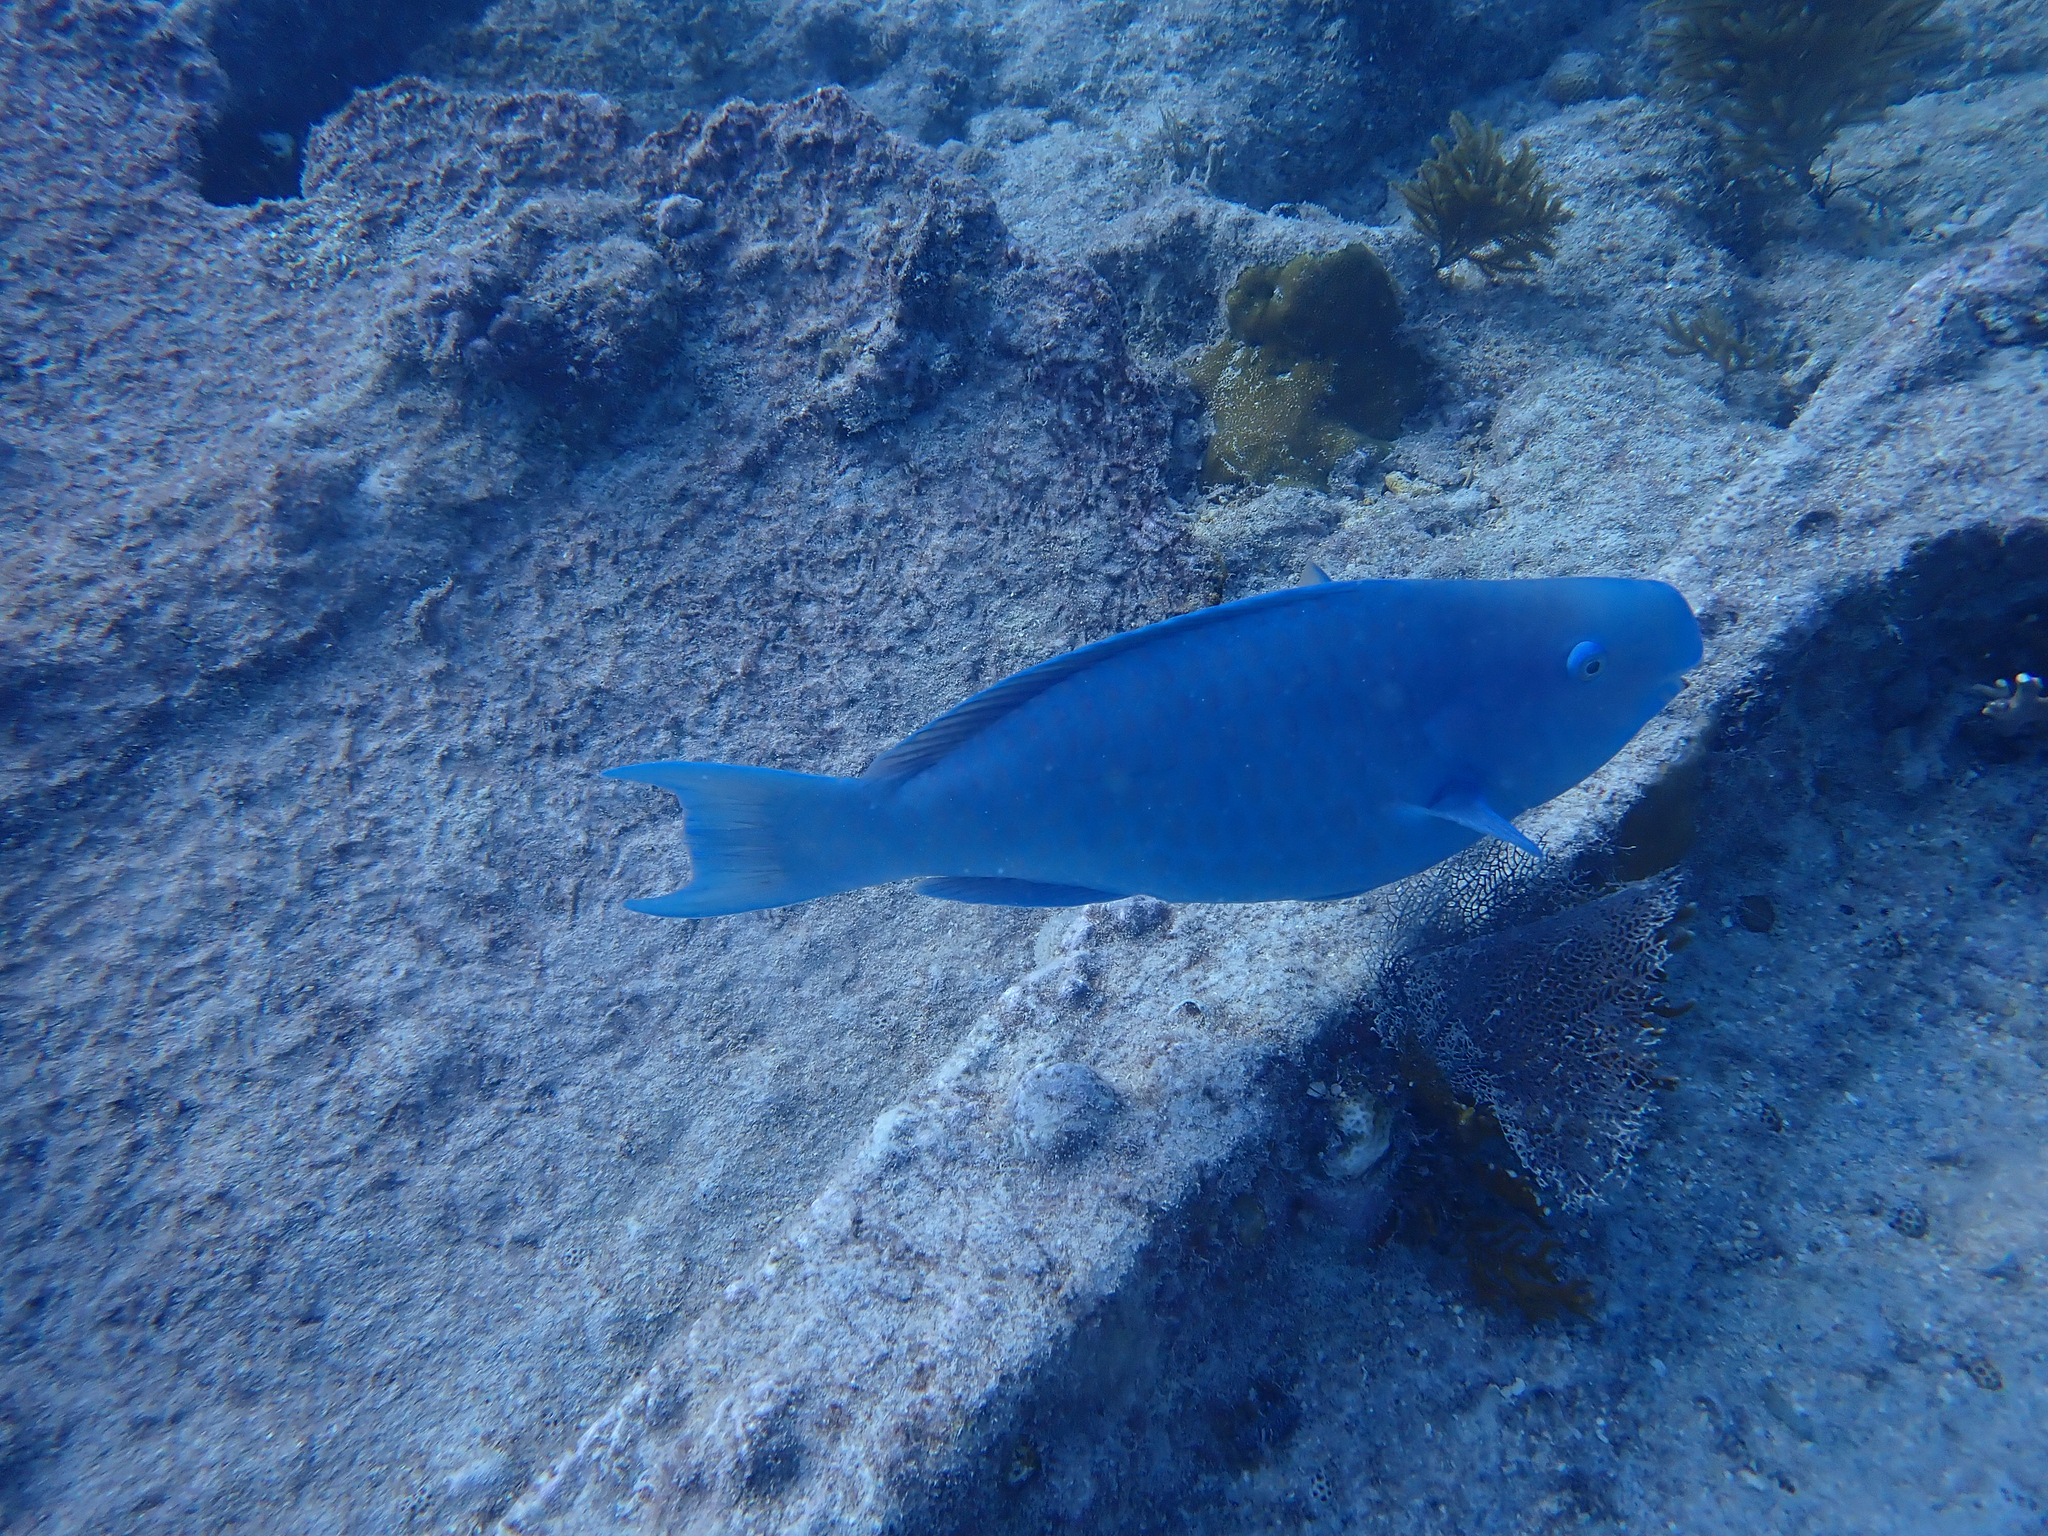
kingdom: Animalia
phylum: Chordata
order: Perciformes
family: Scaridae
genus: Scarus
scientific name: Scarus coeruleus
